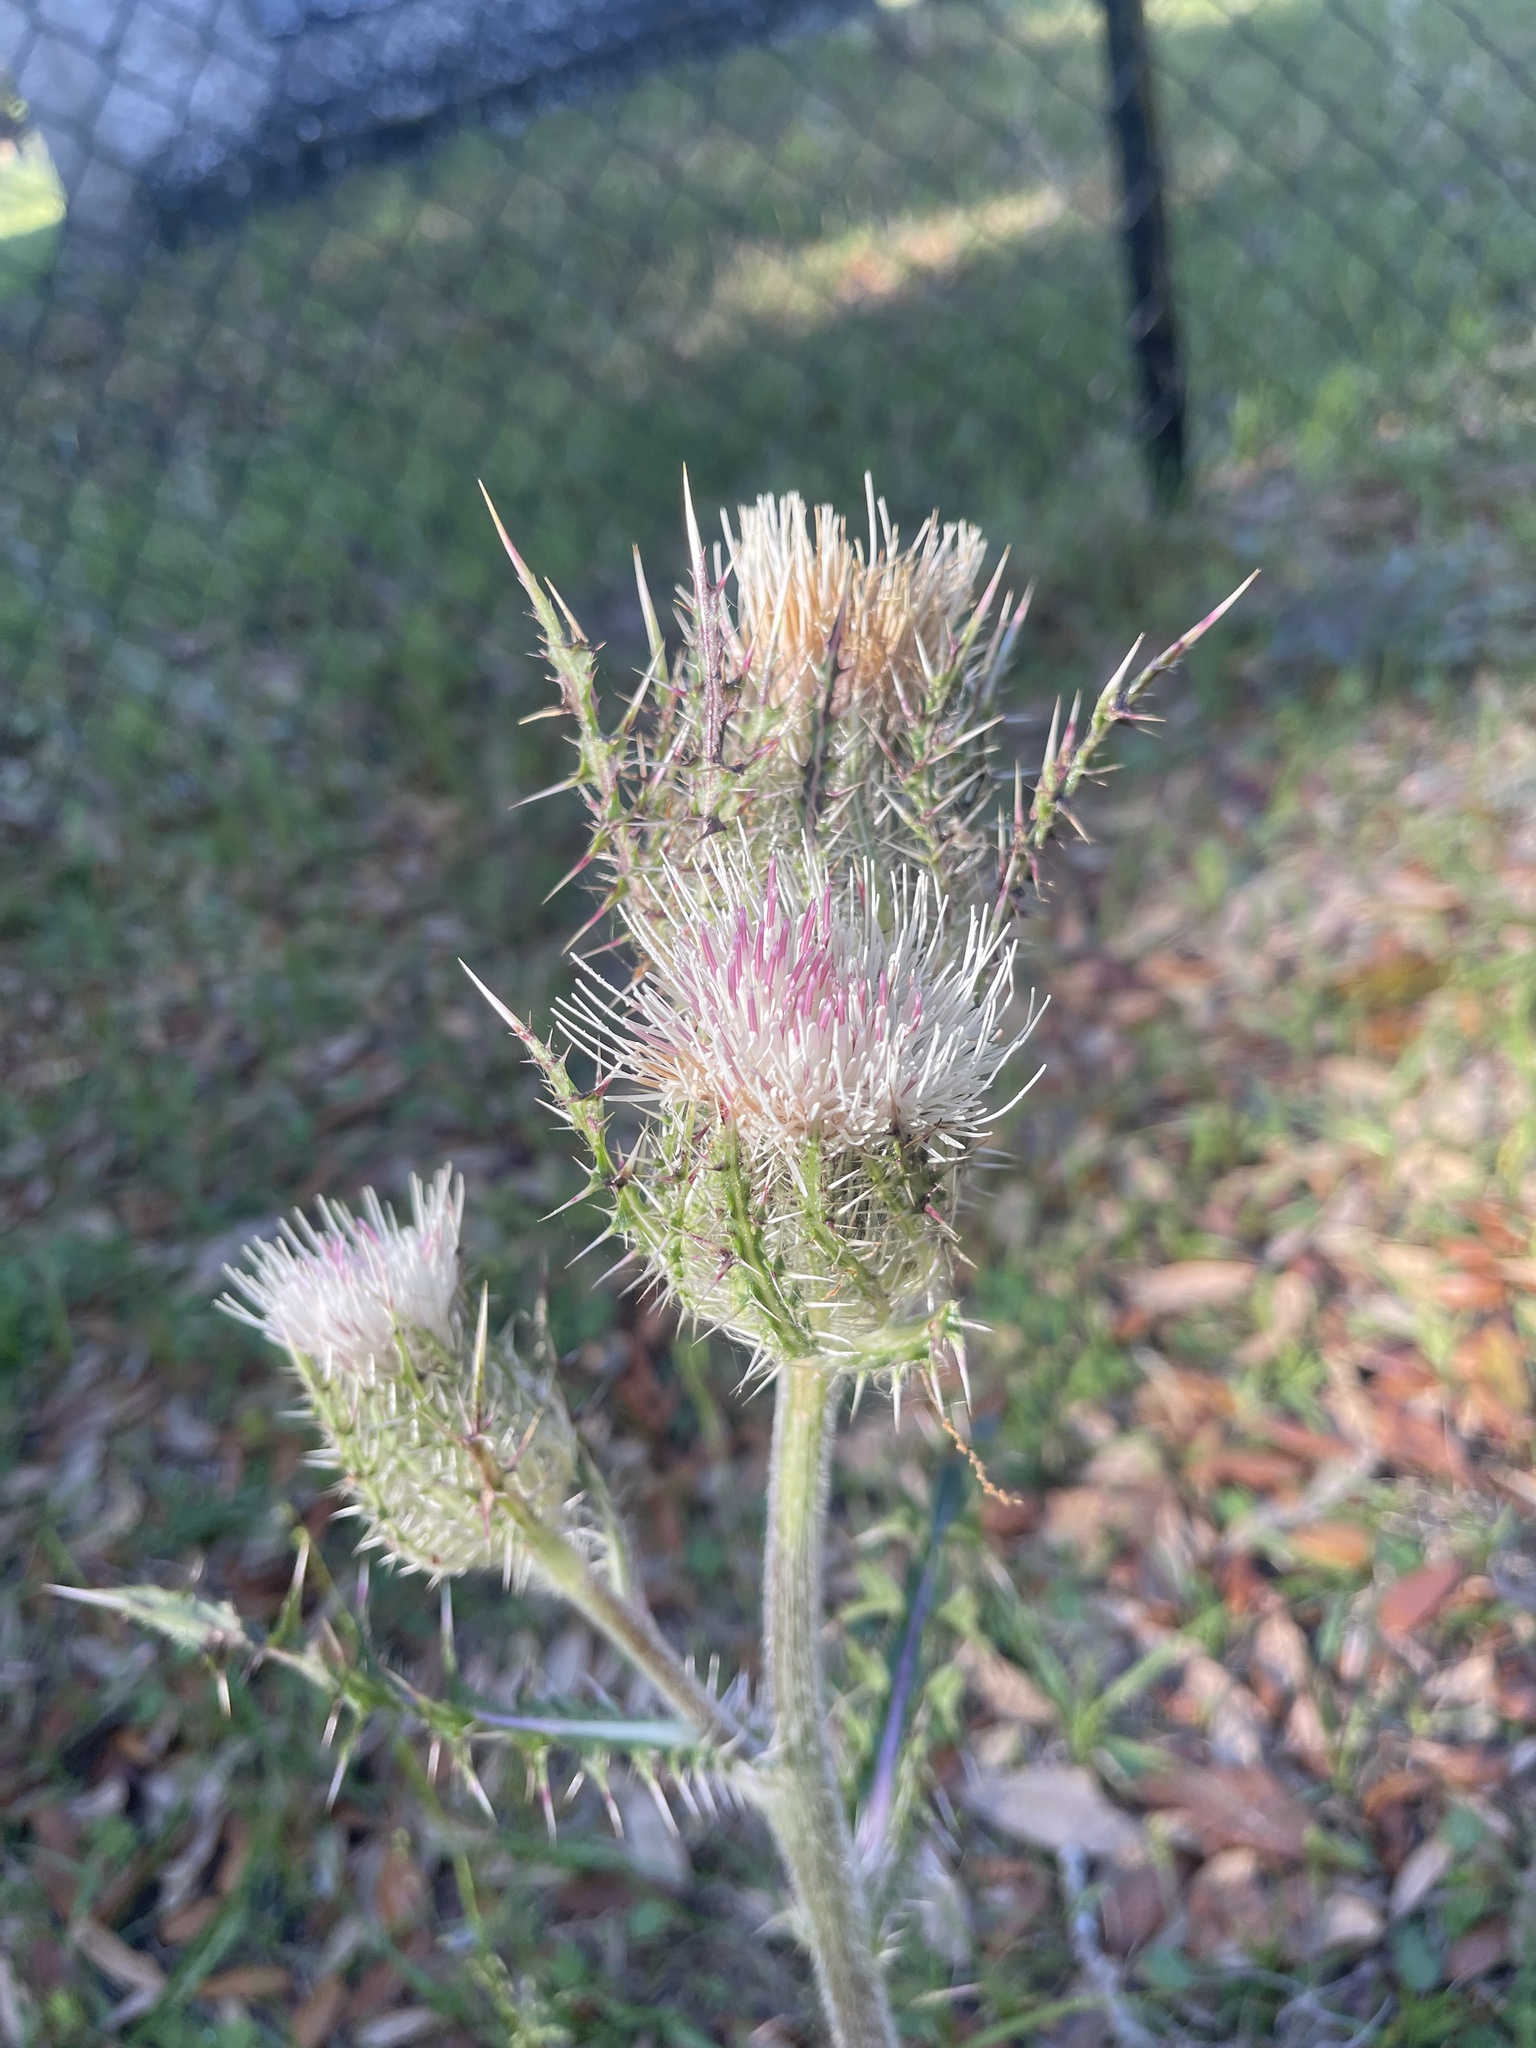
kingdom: Plantae
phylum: Tracheophyta
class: Magnoliopsida
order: Asterales
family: Asteraceae
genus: Cirsium
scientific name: Cirsium horridulum
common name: Bristly thistle
